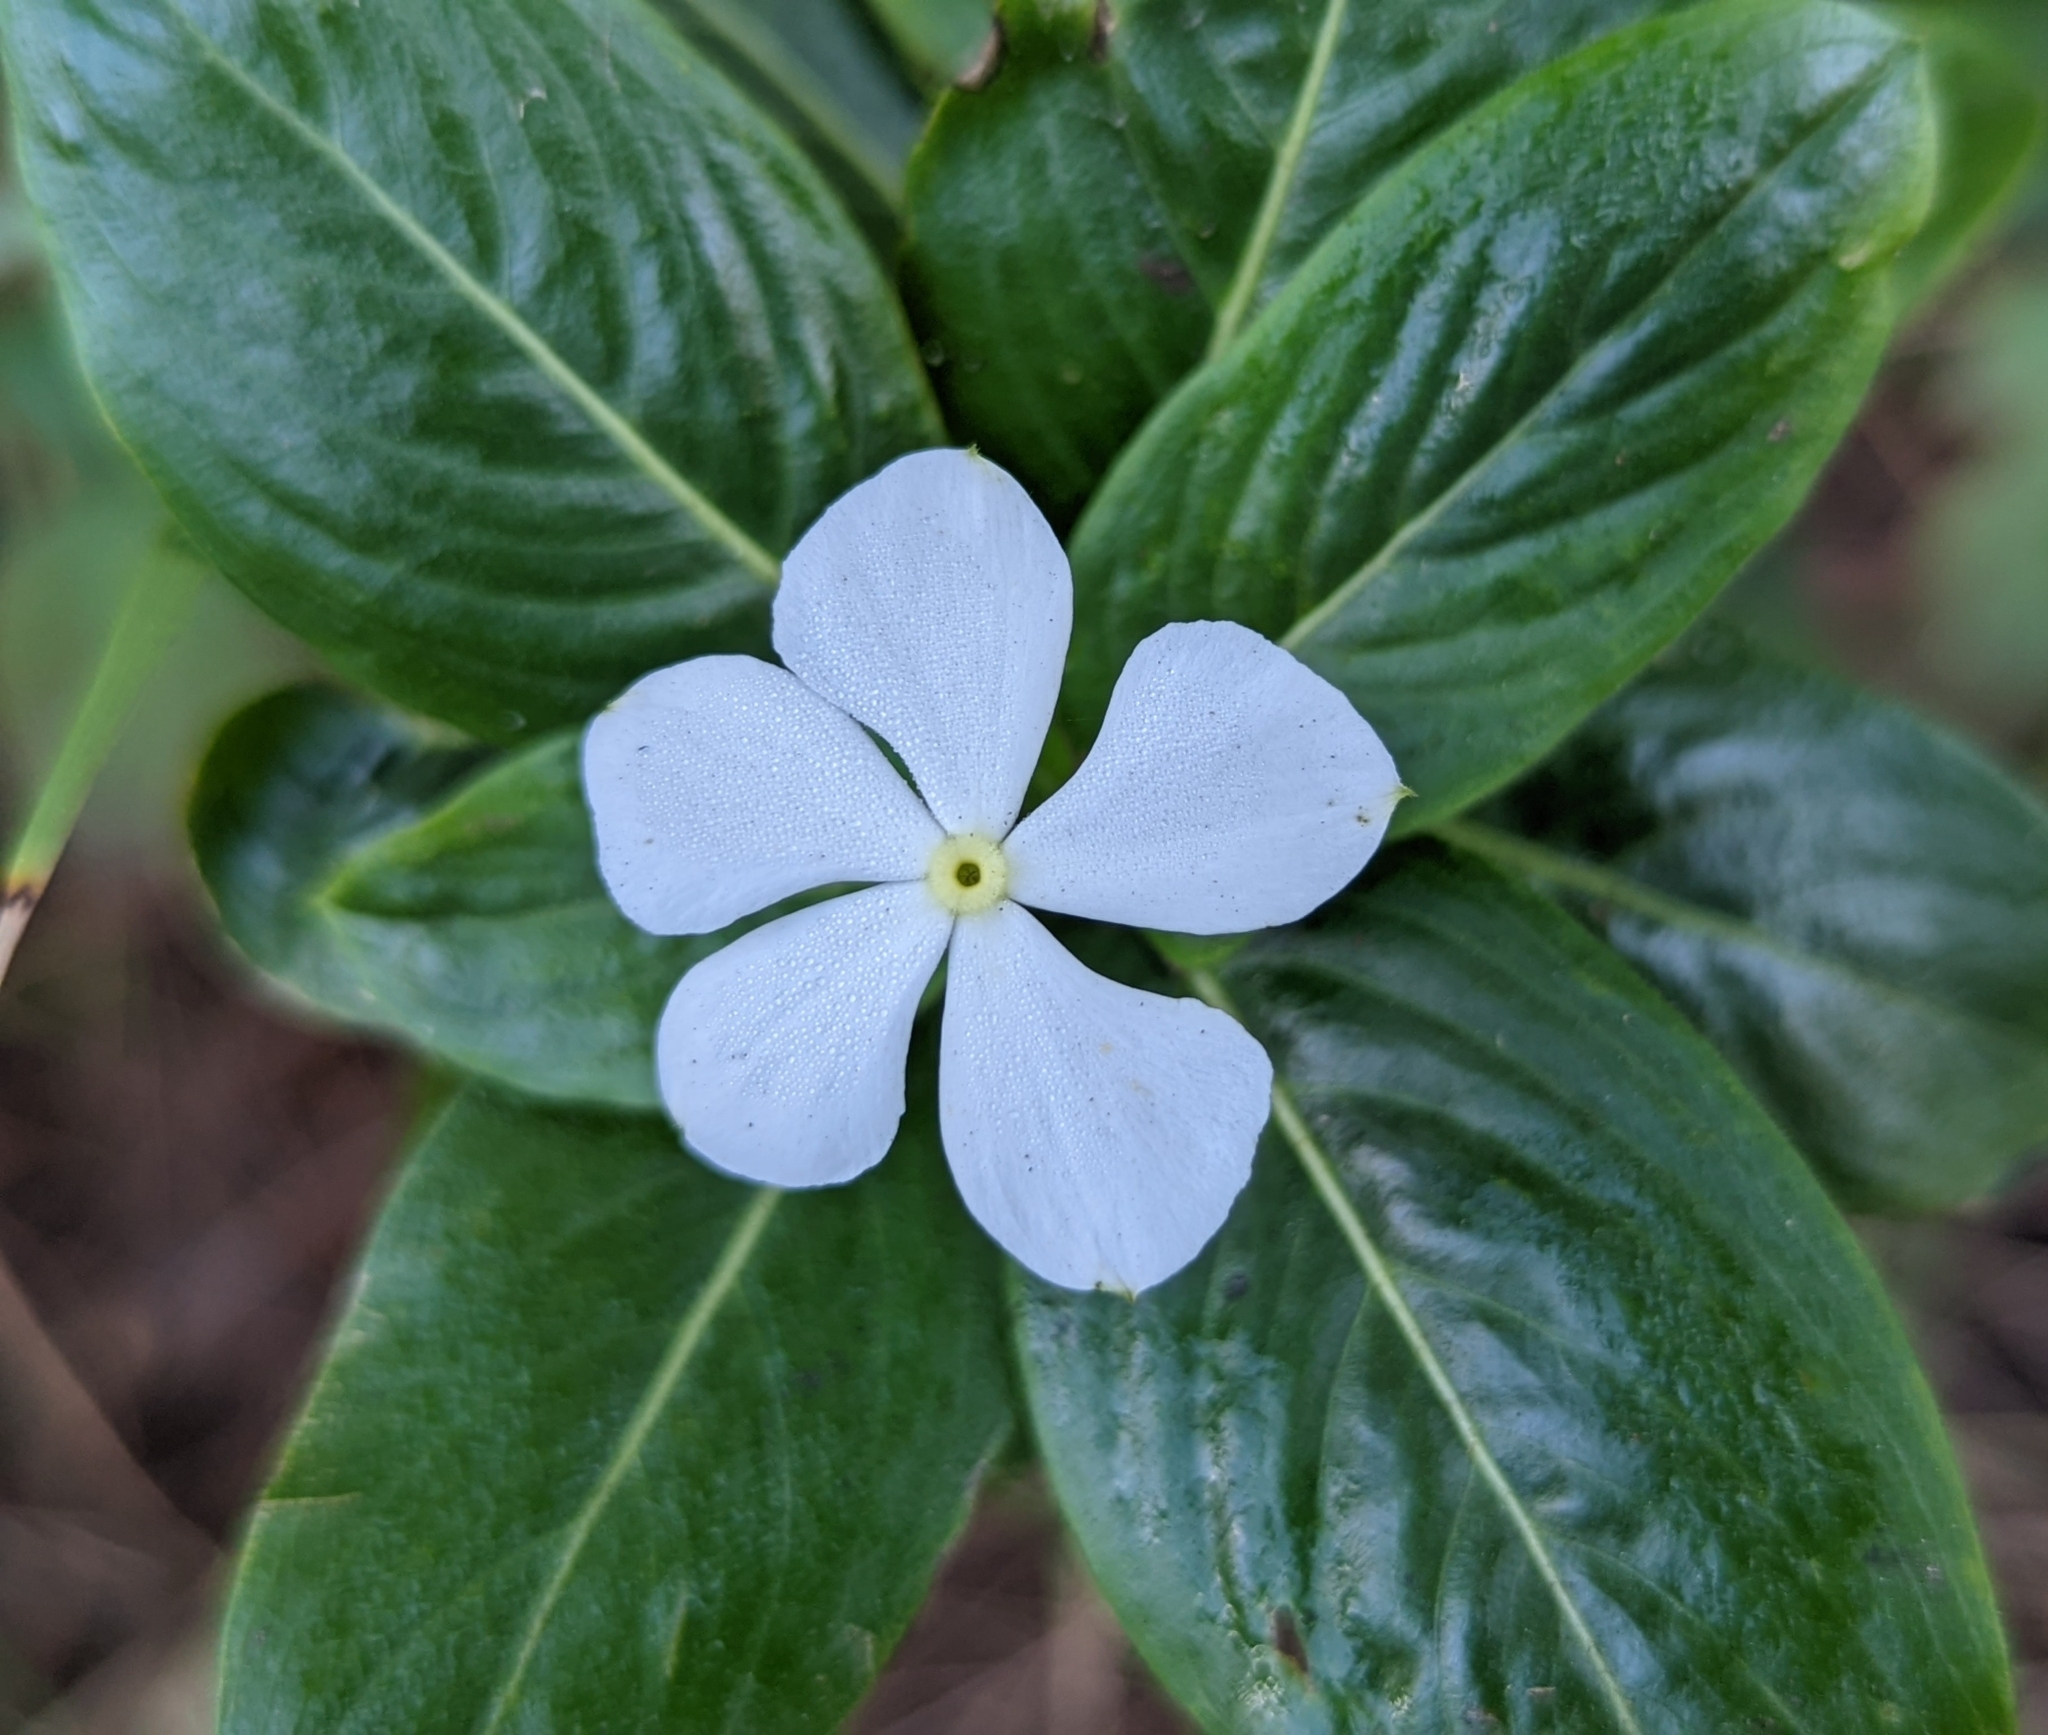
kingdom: Plantae
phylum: Tracheophyta
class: Magnoliopsida
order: Gentianales
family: Apocynaceae
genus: Catharanthus
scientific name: Catharanthus roseus
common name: Madagascar periwinkle
